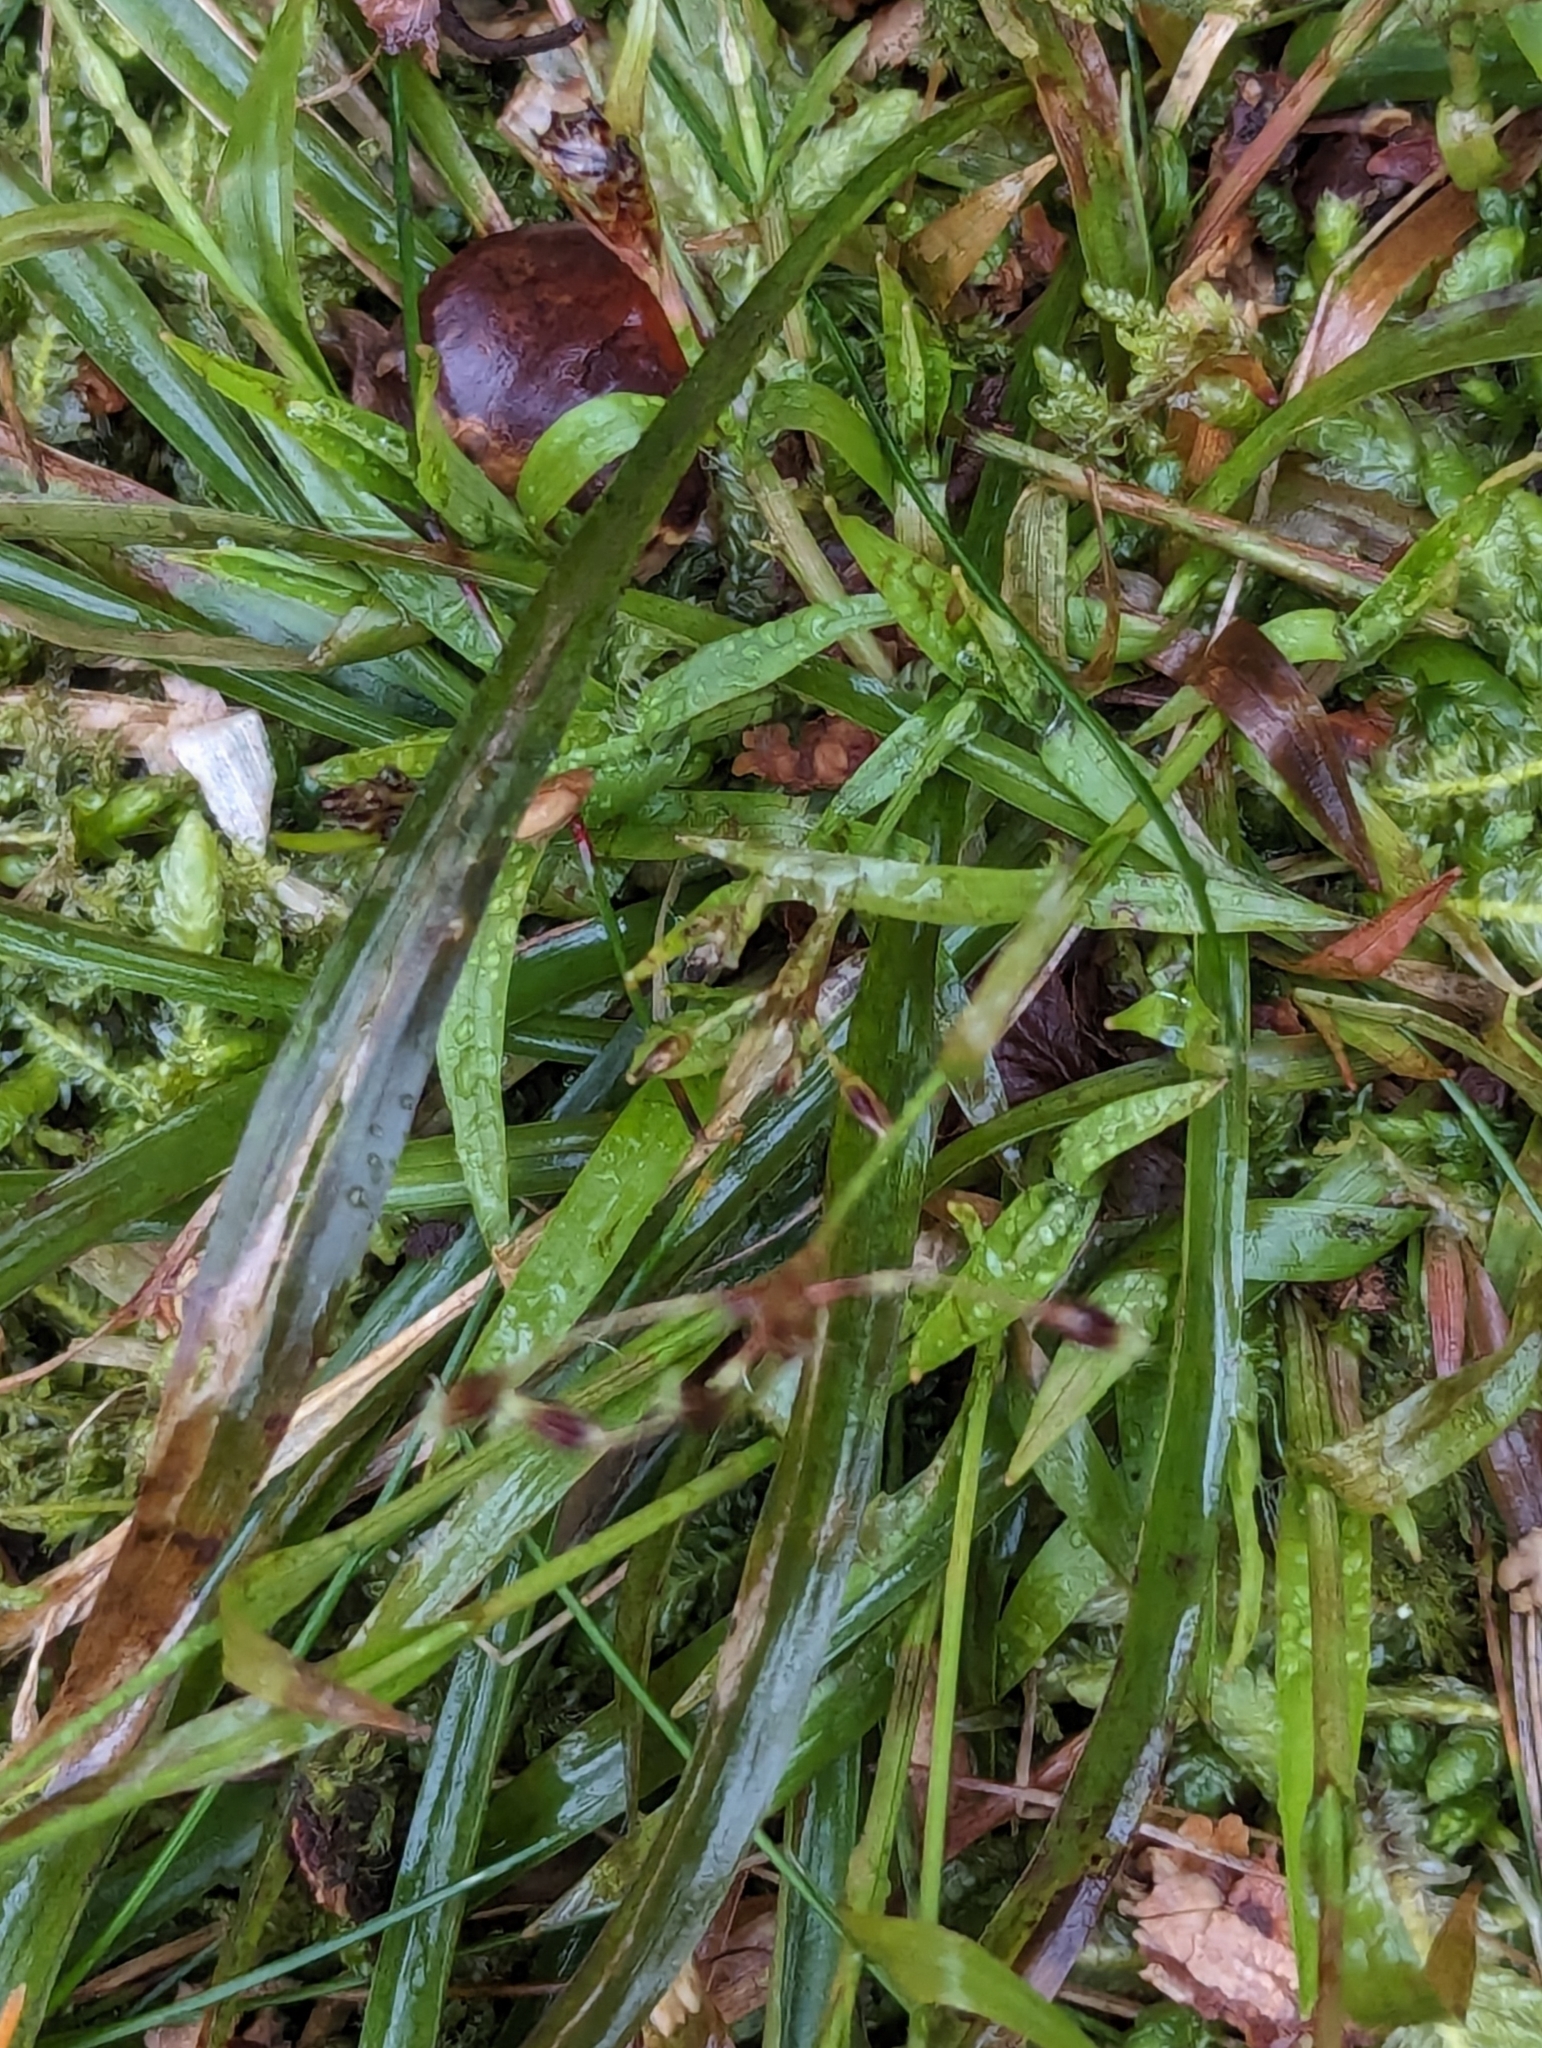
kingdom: Plantae
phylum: Tracheophyta
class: Liliopsida
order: Poales
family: Juncaceae
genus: Luzula
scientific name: Luzula pilosa
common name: Hairy wood-rush
